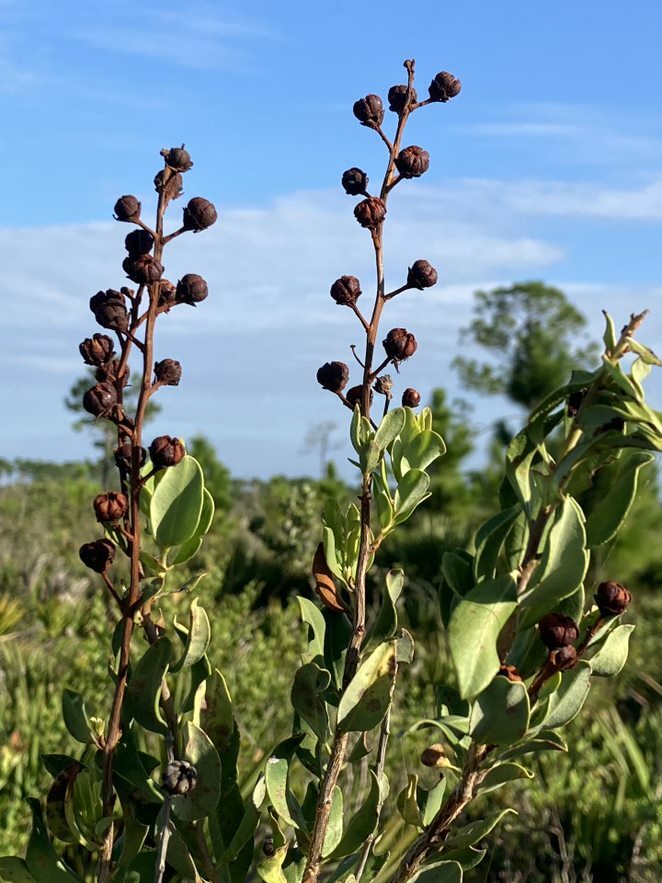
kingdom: Plantae
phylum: Tracheophyta
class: Magnoliopsida
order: Ericales
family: Ericaceae
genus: Bejaria
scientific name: Bejaria racemosa
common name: Tarflower
